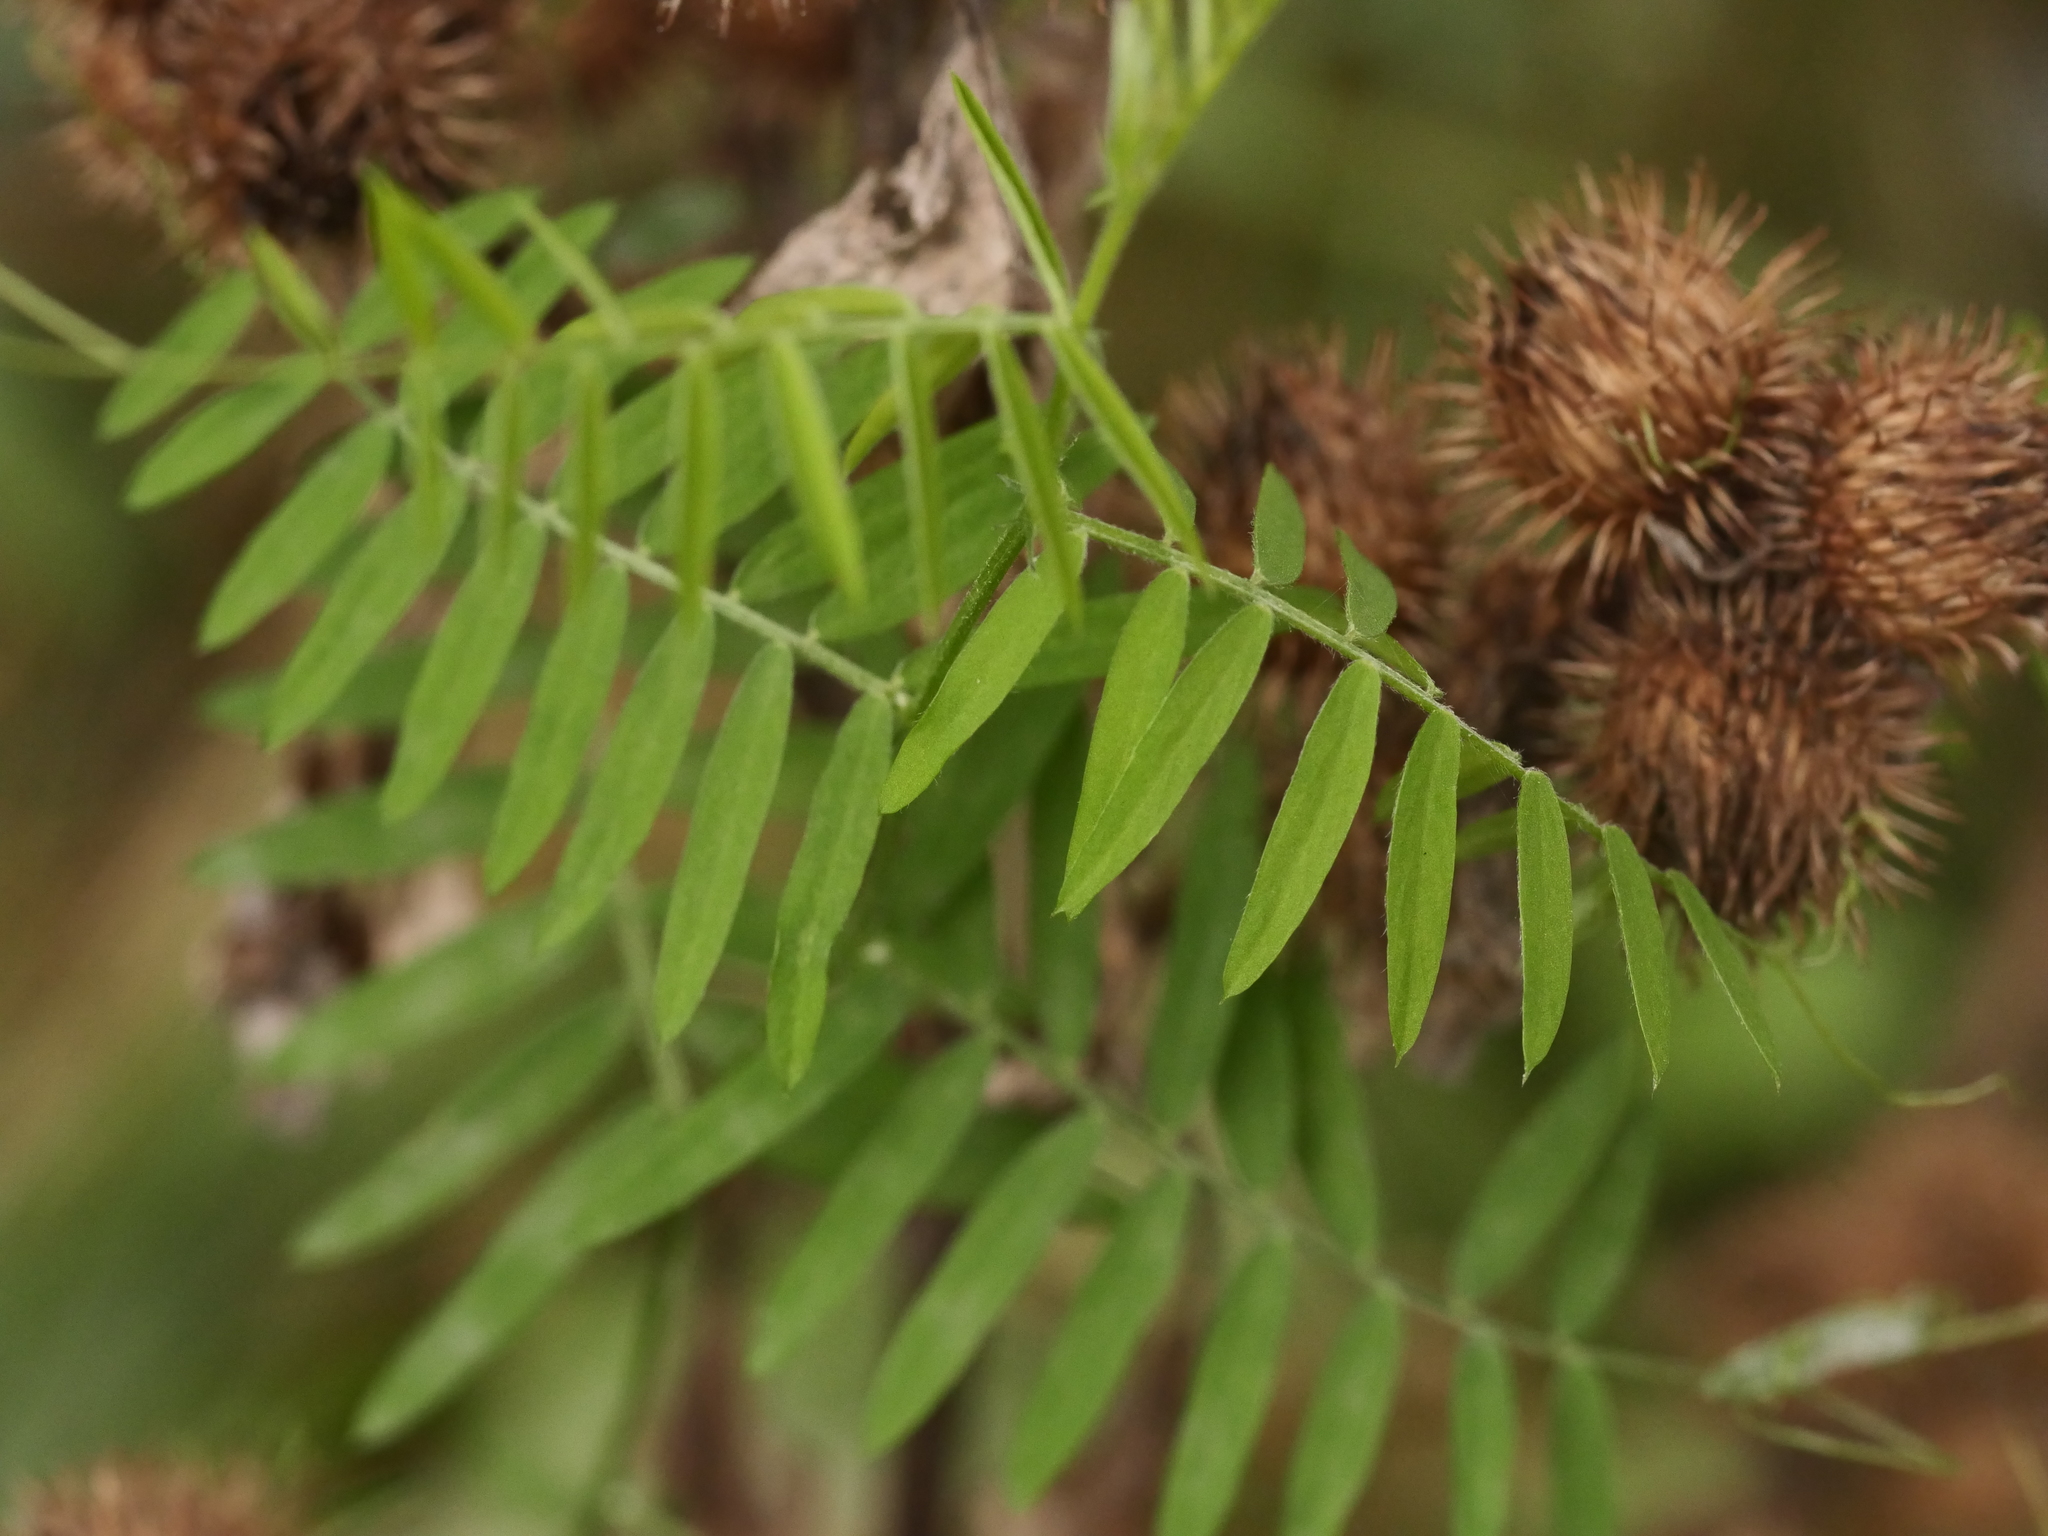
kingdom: Plantae
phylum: Tracheophyta
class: Magnoliopsida
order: Fabales
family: Fabaceae
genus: Vicia
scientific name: Vicia cracca
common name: Bird vetch
